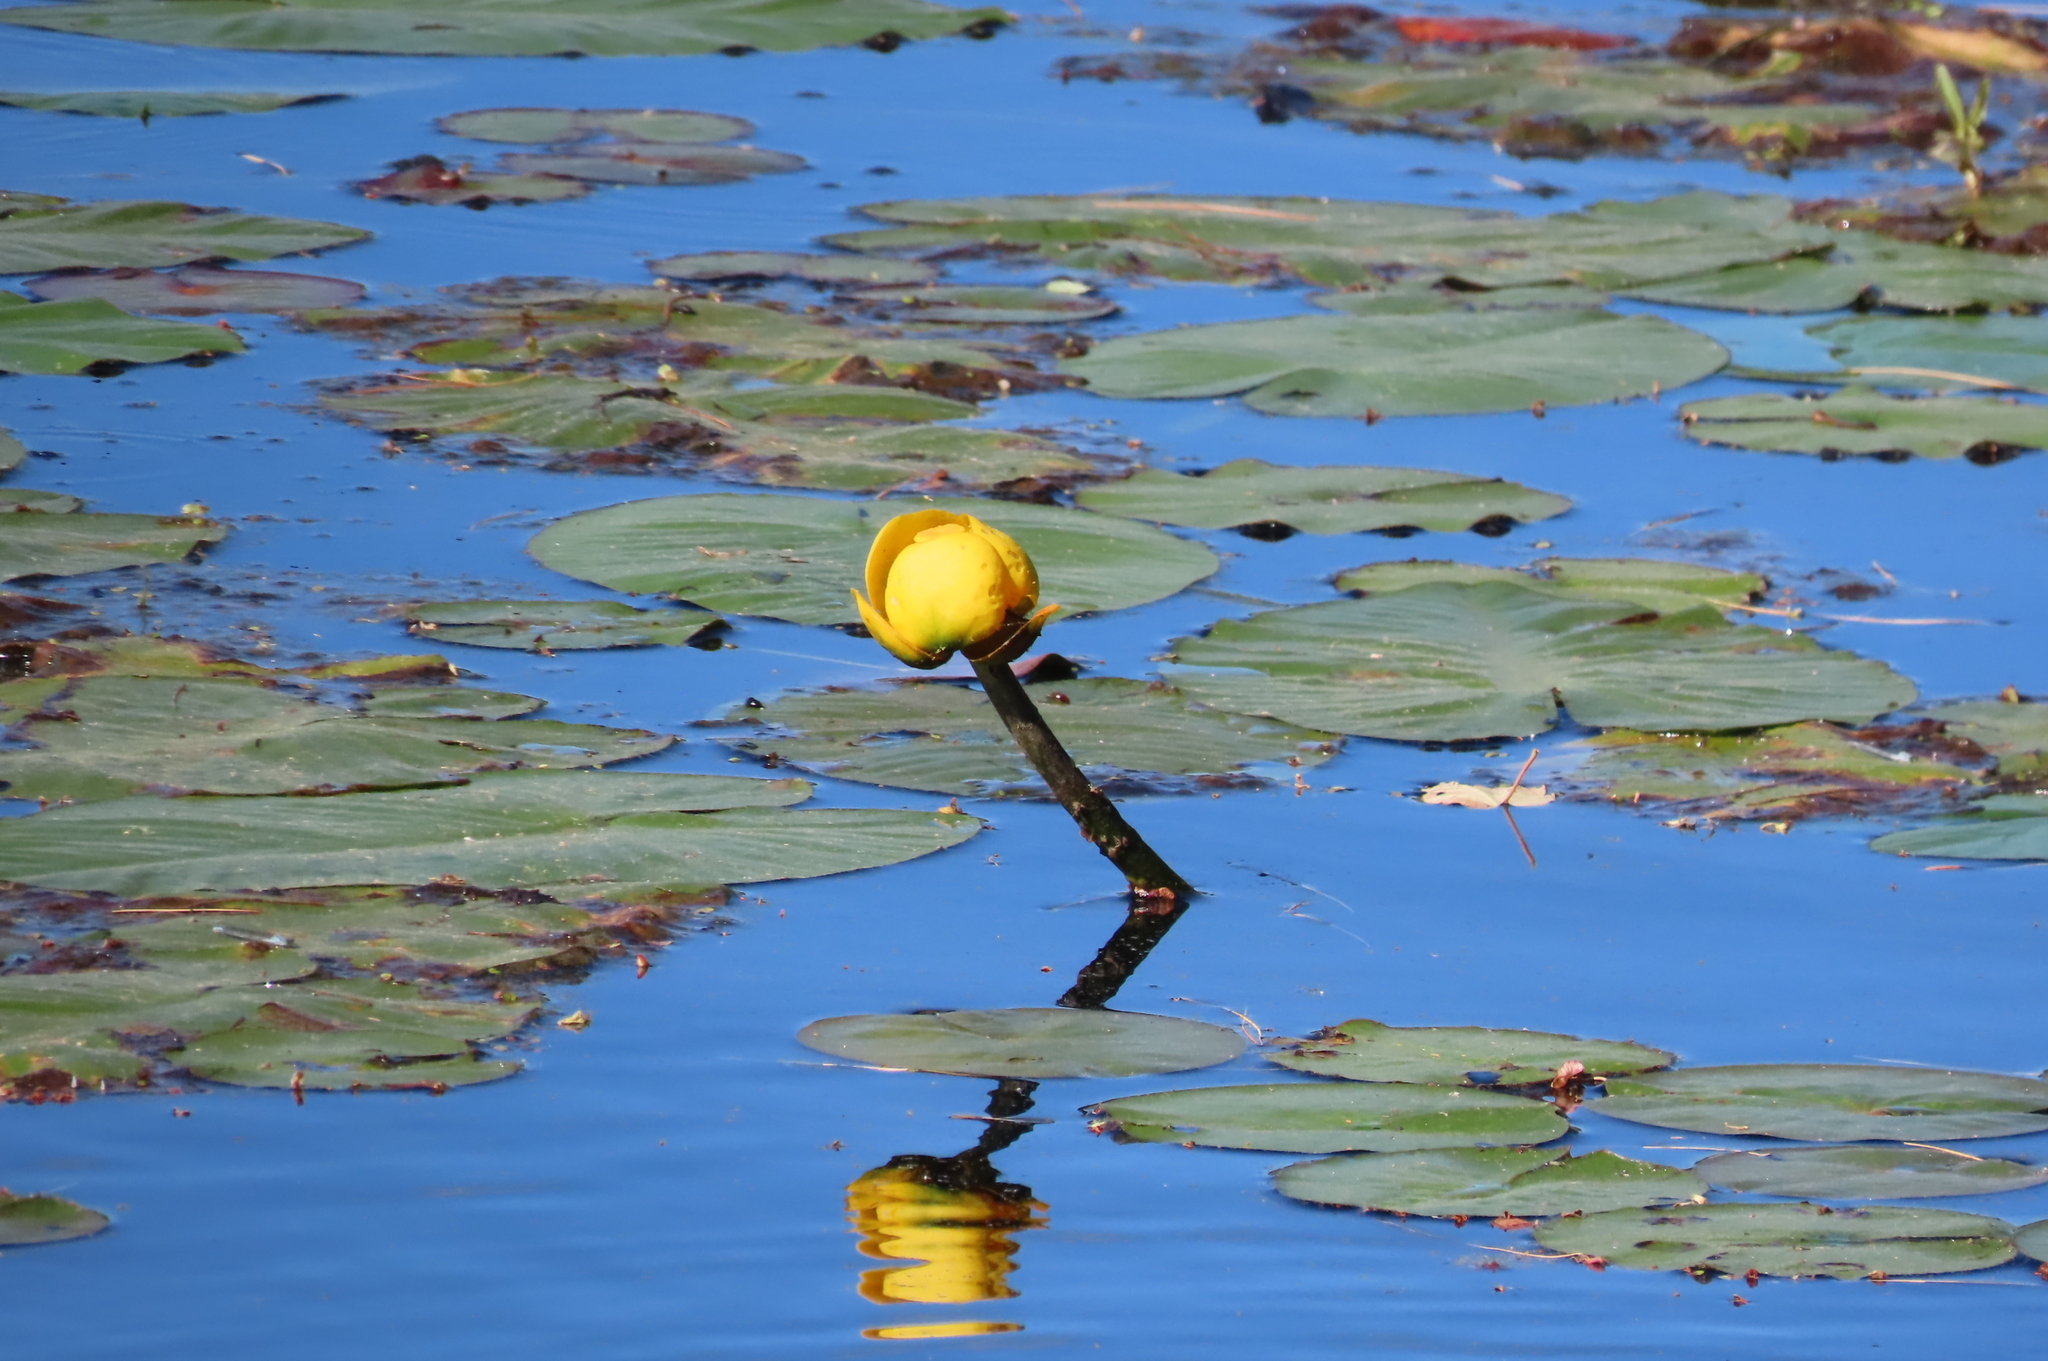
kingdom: Plantae
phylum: Tracheophyta
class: Magnoliopsida
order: Nymphaeales
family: Nymphaeaceae
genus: Nuphar
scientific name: Nuphar variegata
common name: Beaver-root
